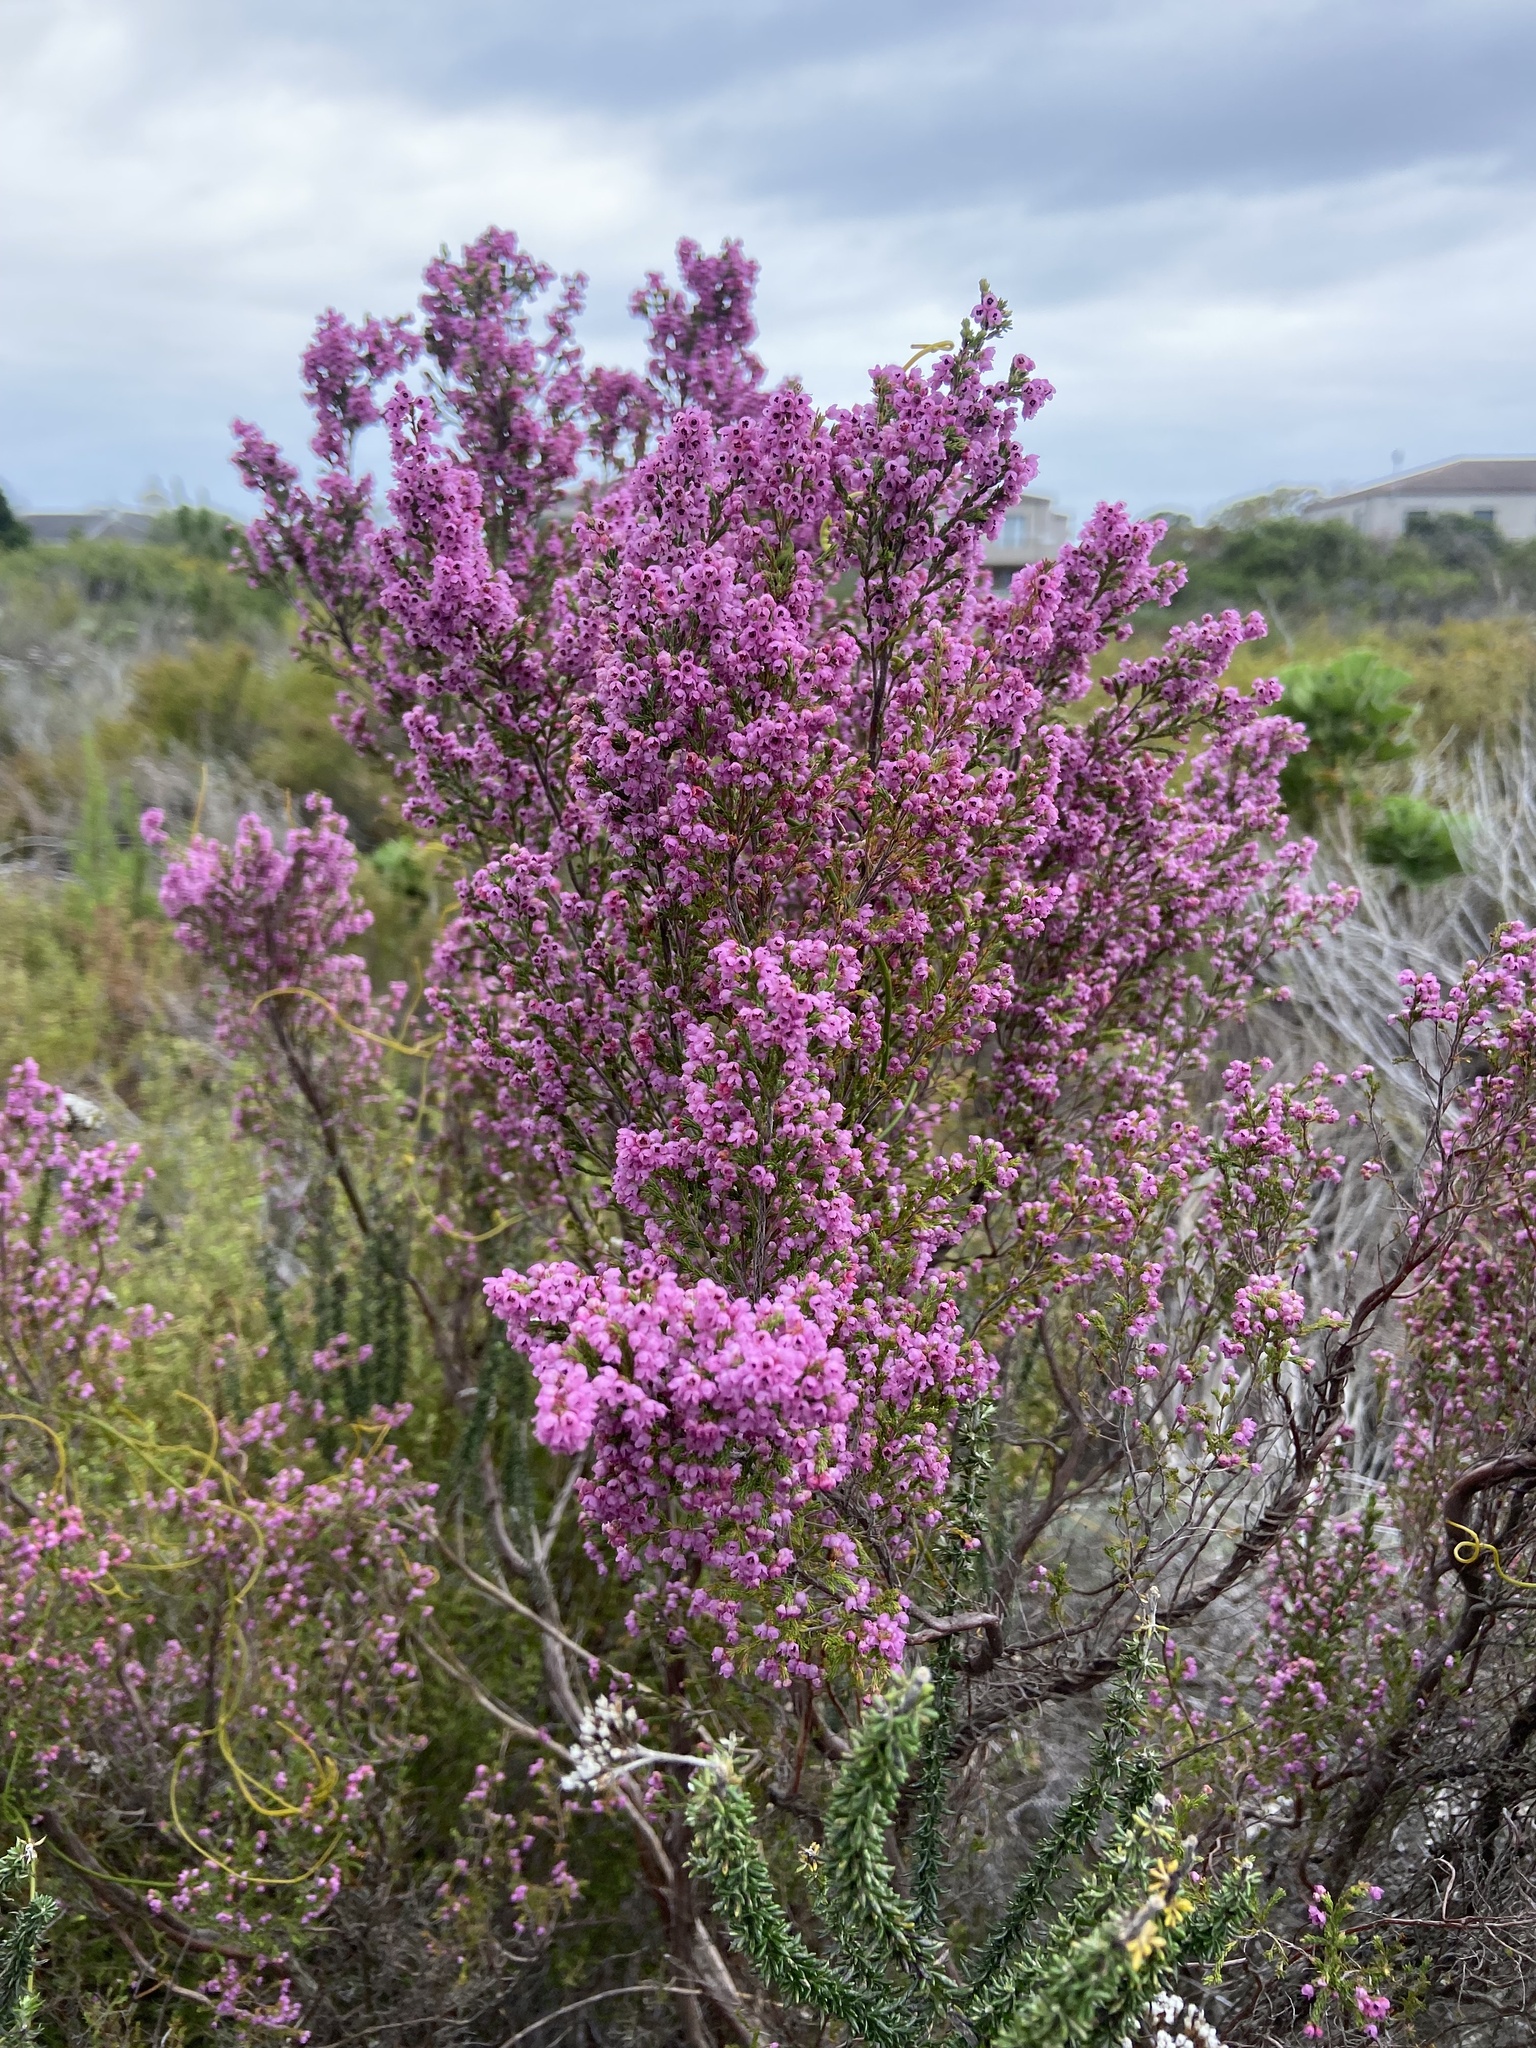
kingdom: Plantae
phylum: Tracheophyta
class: Magnoliopsida
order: Ericales
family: Ericaceae
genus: Erica
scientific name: Erica mauritanica
